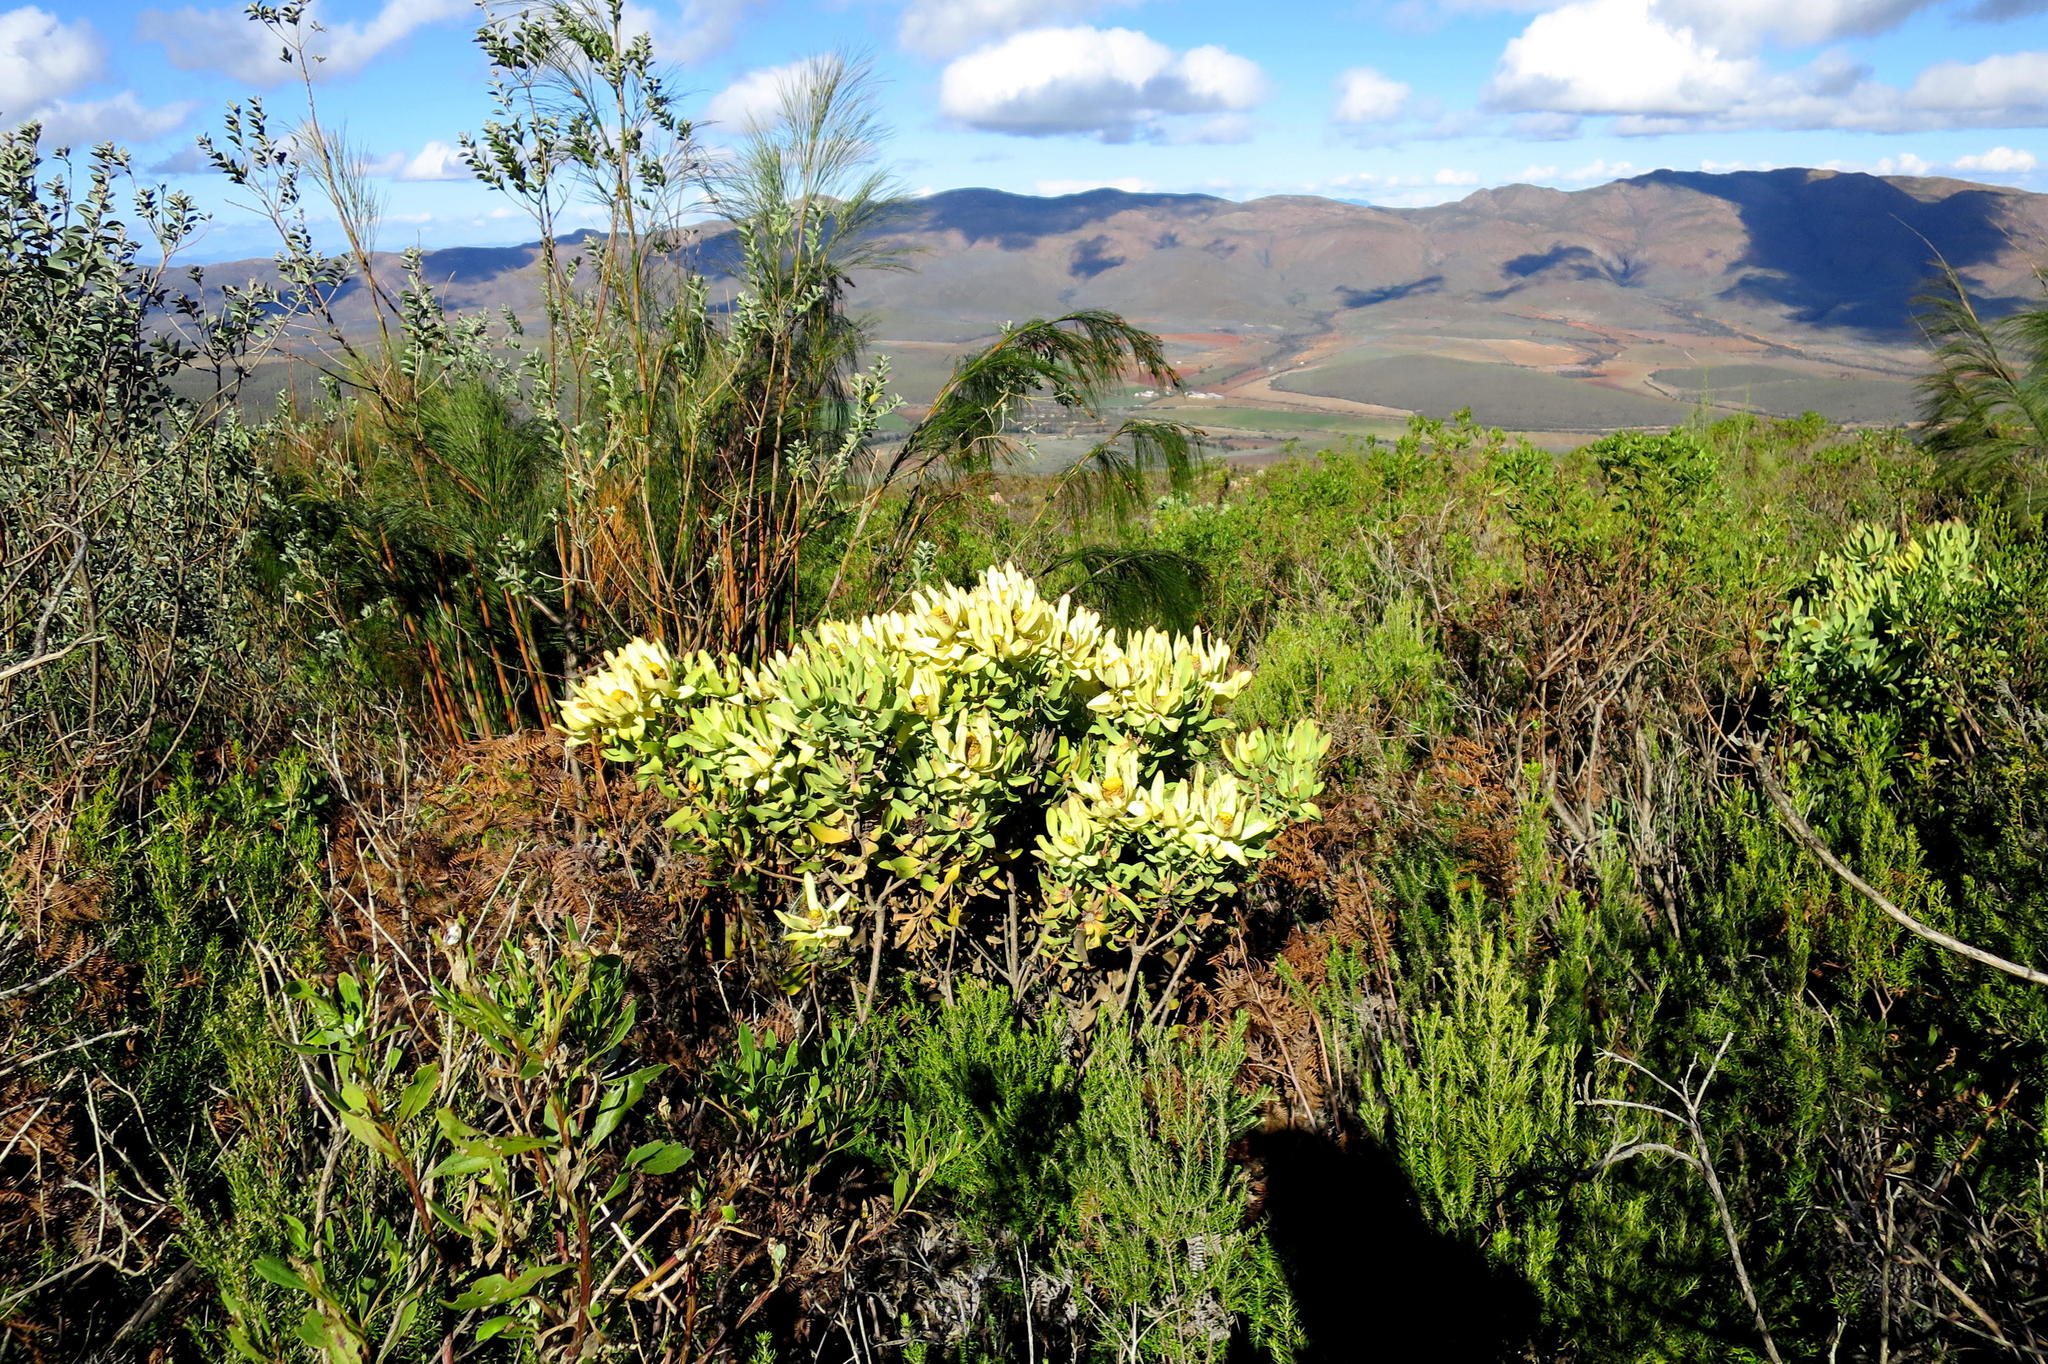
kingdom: Plantae
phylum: Tracheophyta
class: Magnoliopsida
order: Proteales
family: Proteaceae
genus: Leucadendron
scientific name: Leucadendron tinctum
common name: Spicy conebush
